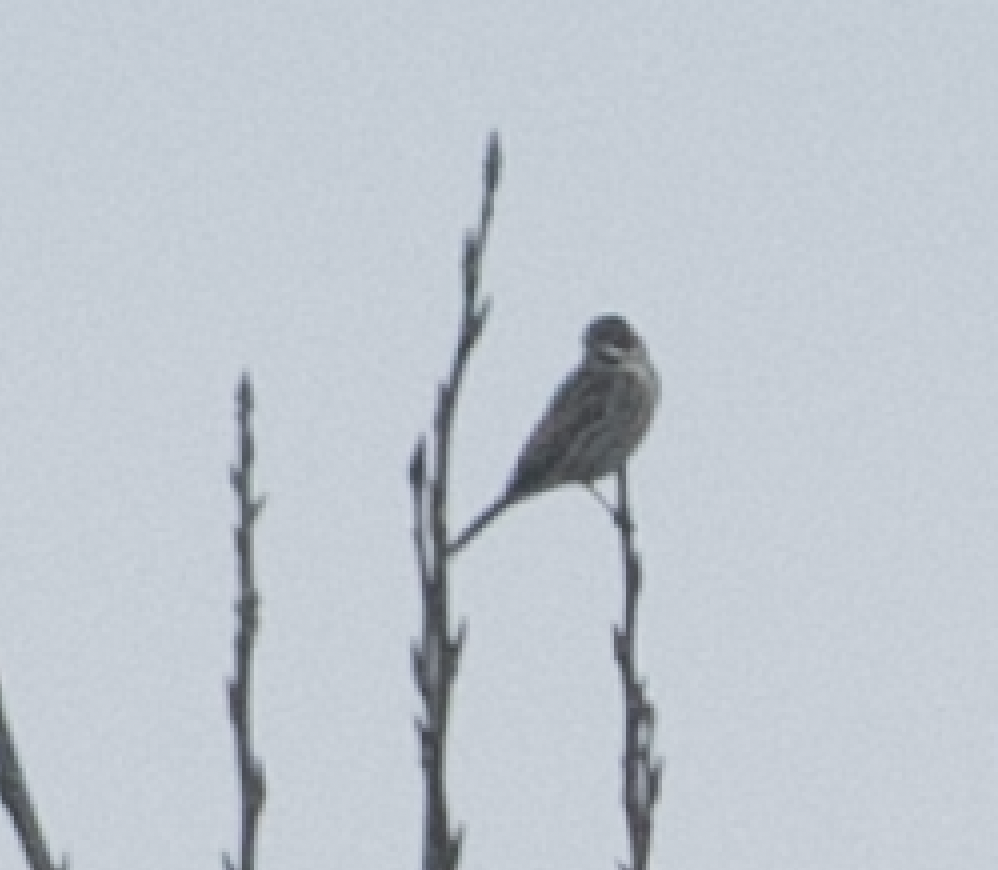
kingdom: Animalia
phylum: Chordata
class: Aves
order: Passeriformes
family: Emberizidae
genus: Emberiza
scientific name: Emberiza schoeniclus
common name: Reed bunting
